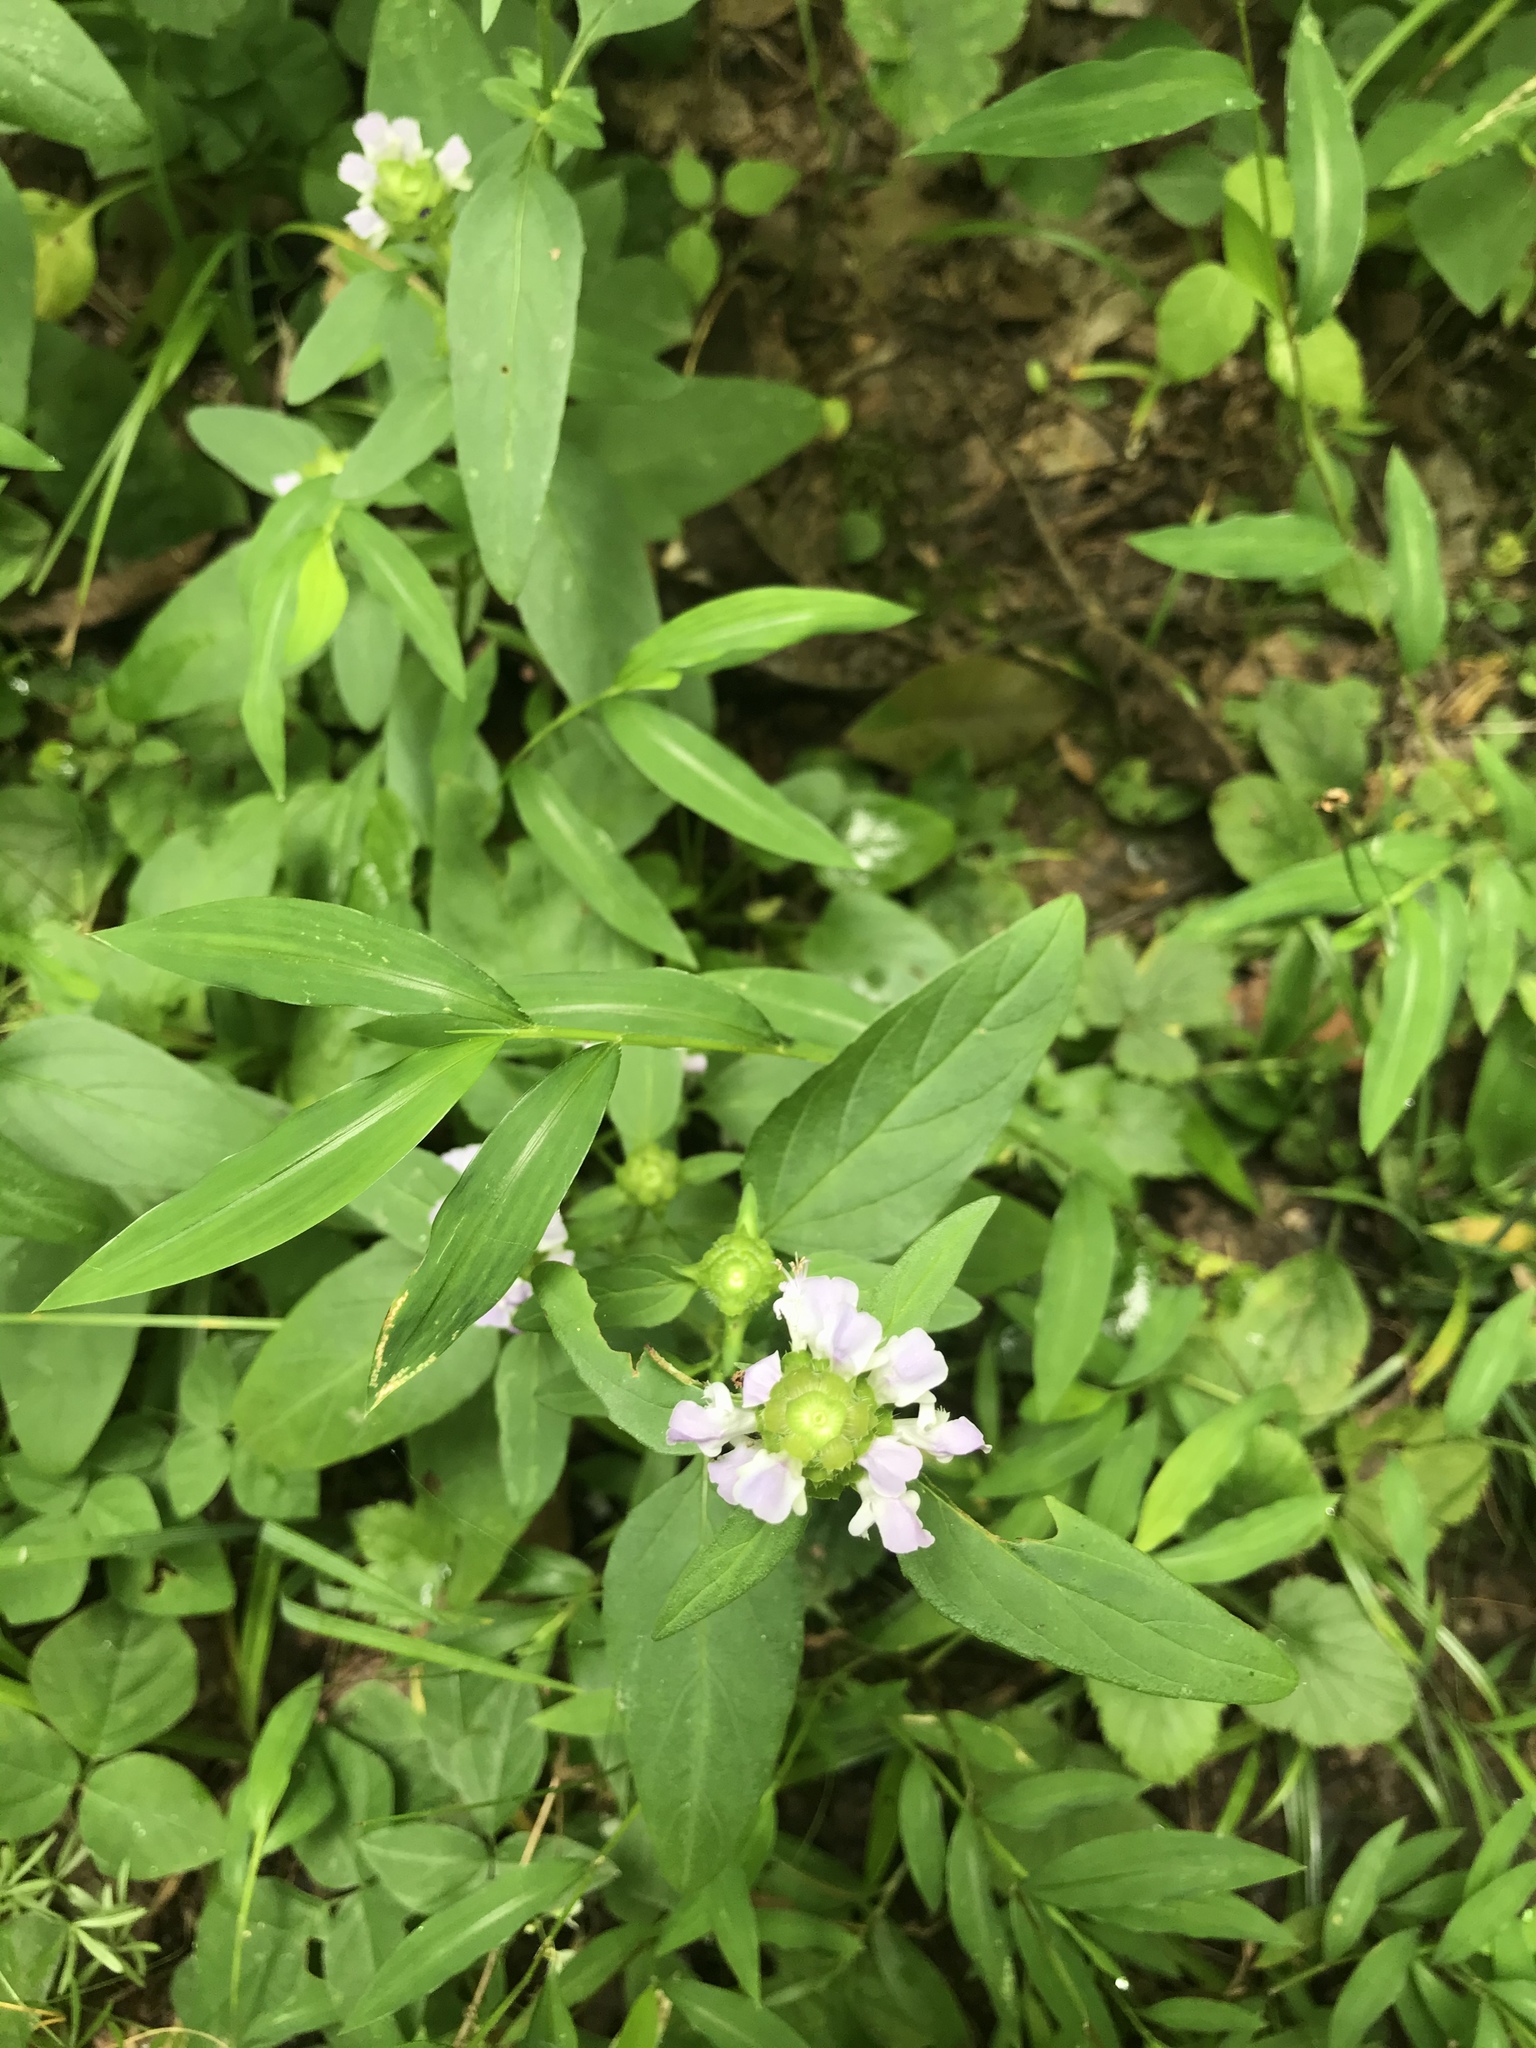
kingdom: Plantae
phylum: Tracheophyta
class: Magnoliopsida
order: Lamiales
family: Lamiaceae
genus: Prunella
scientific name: Prunella vulgaris
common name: Heal-all
